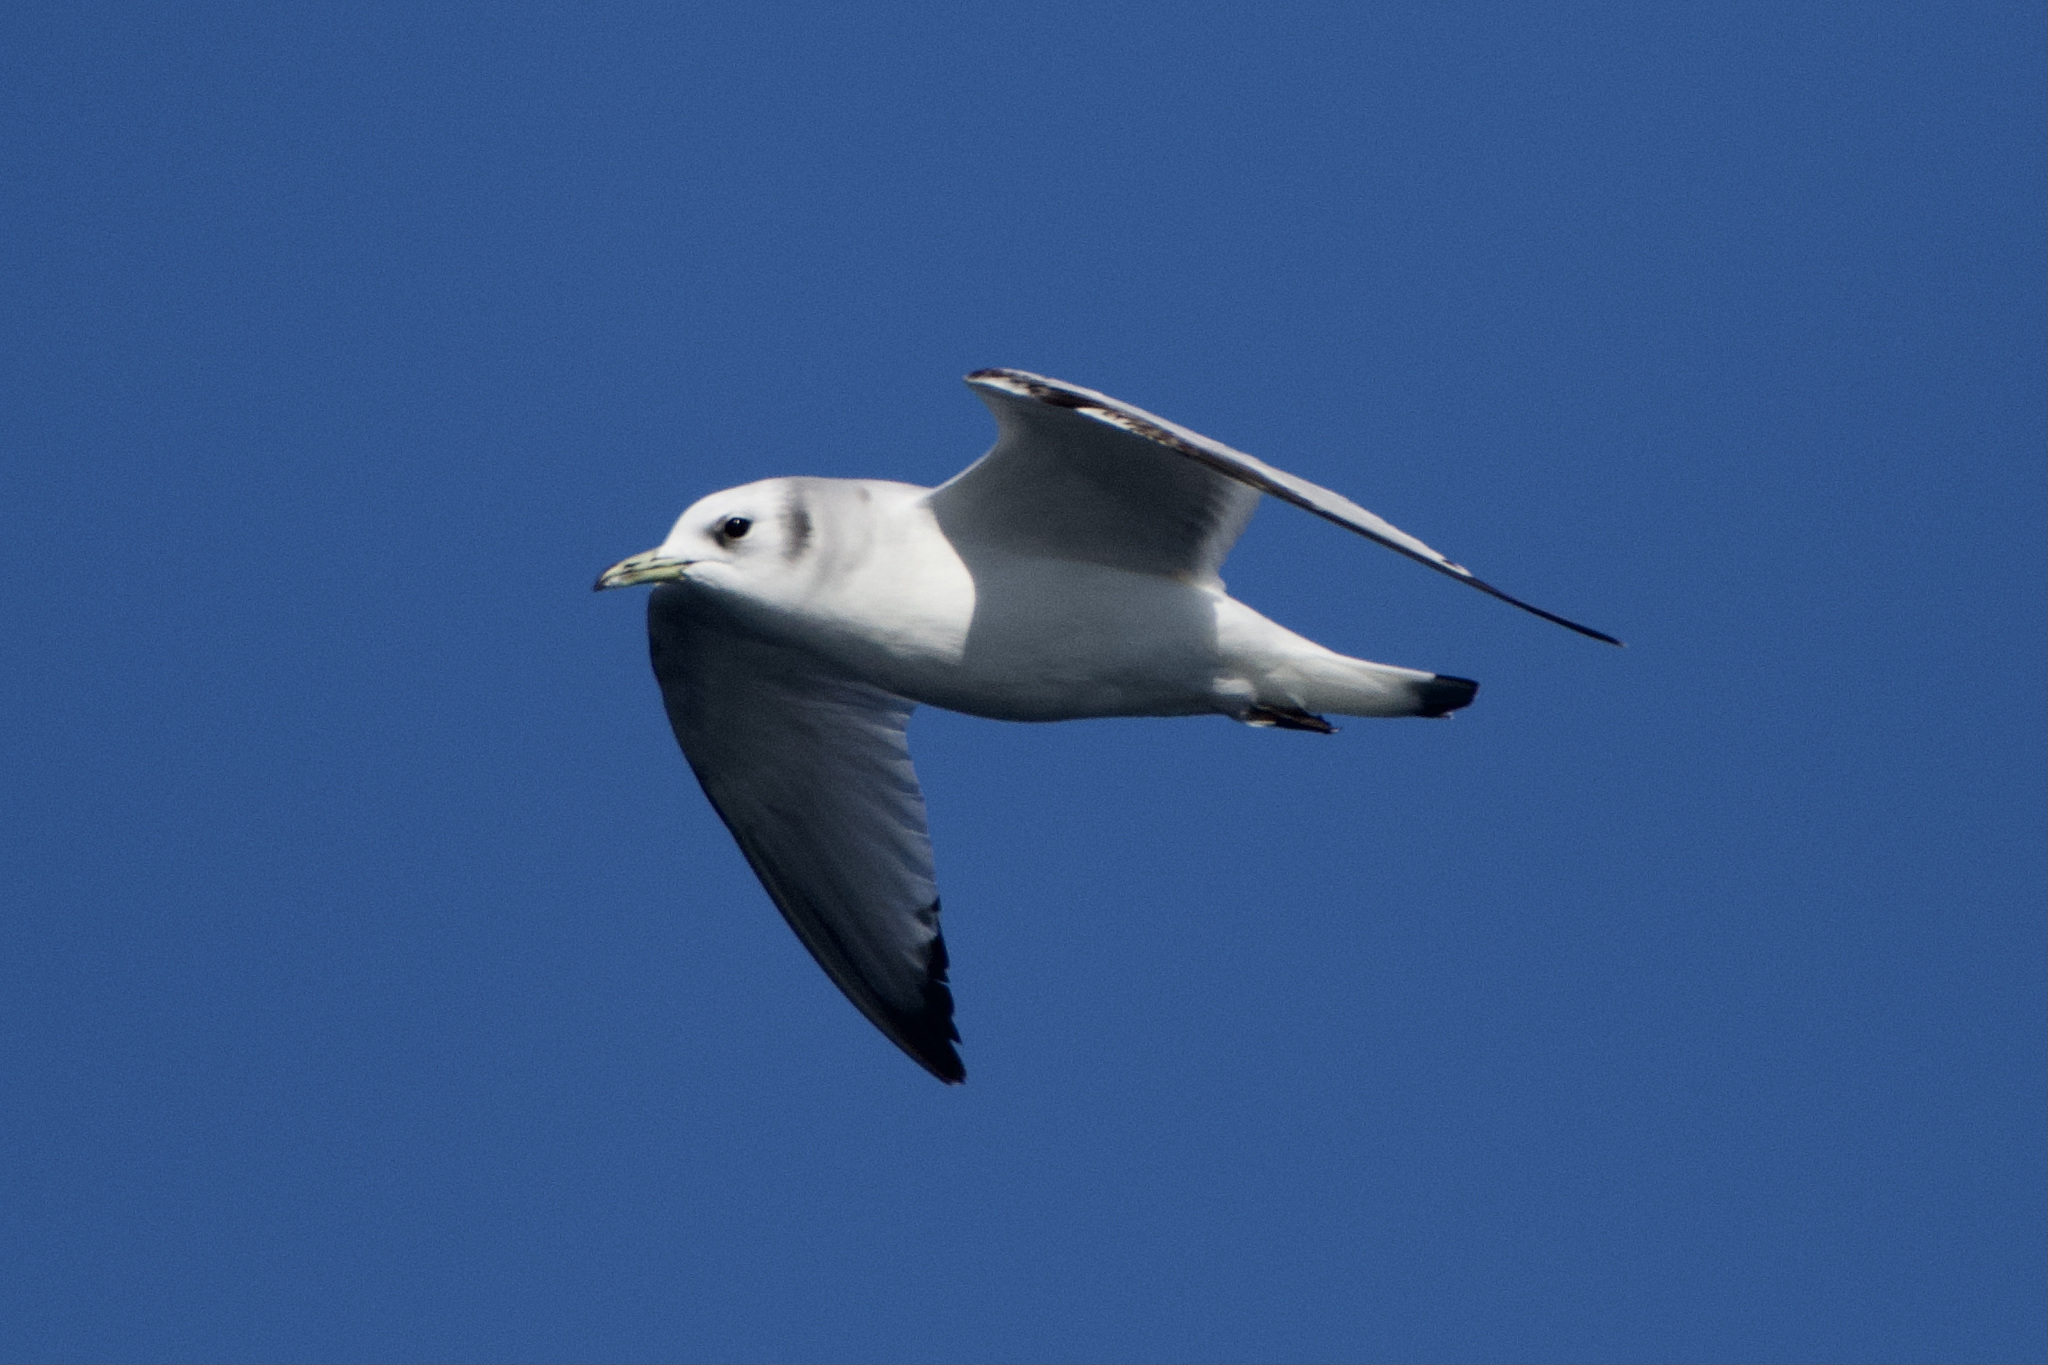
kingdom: Animalia
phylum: Chordata
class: Aves
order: Charadriiformes
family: Laridae
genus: Rissa
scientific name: Rissa tridactyla
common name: Black-legged kittiwake
